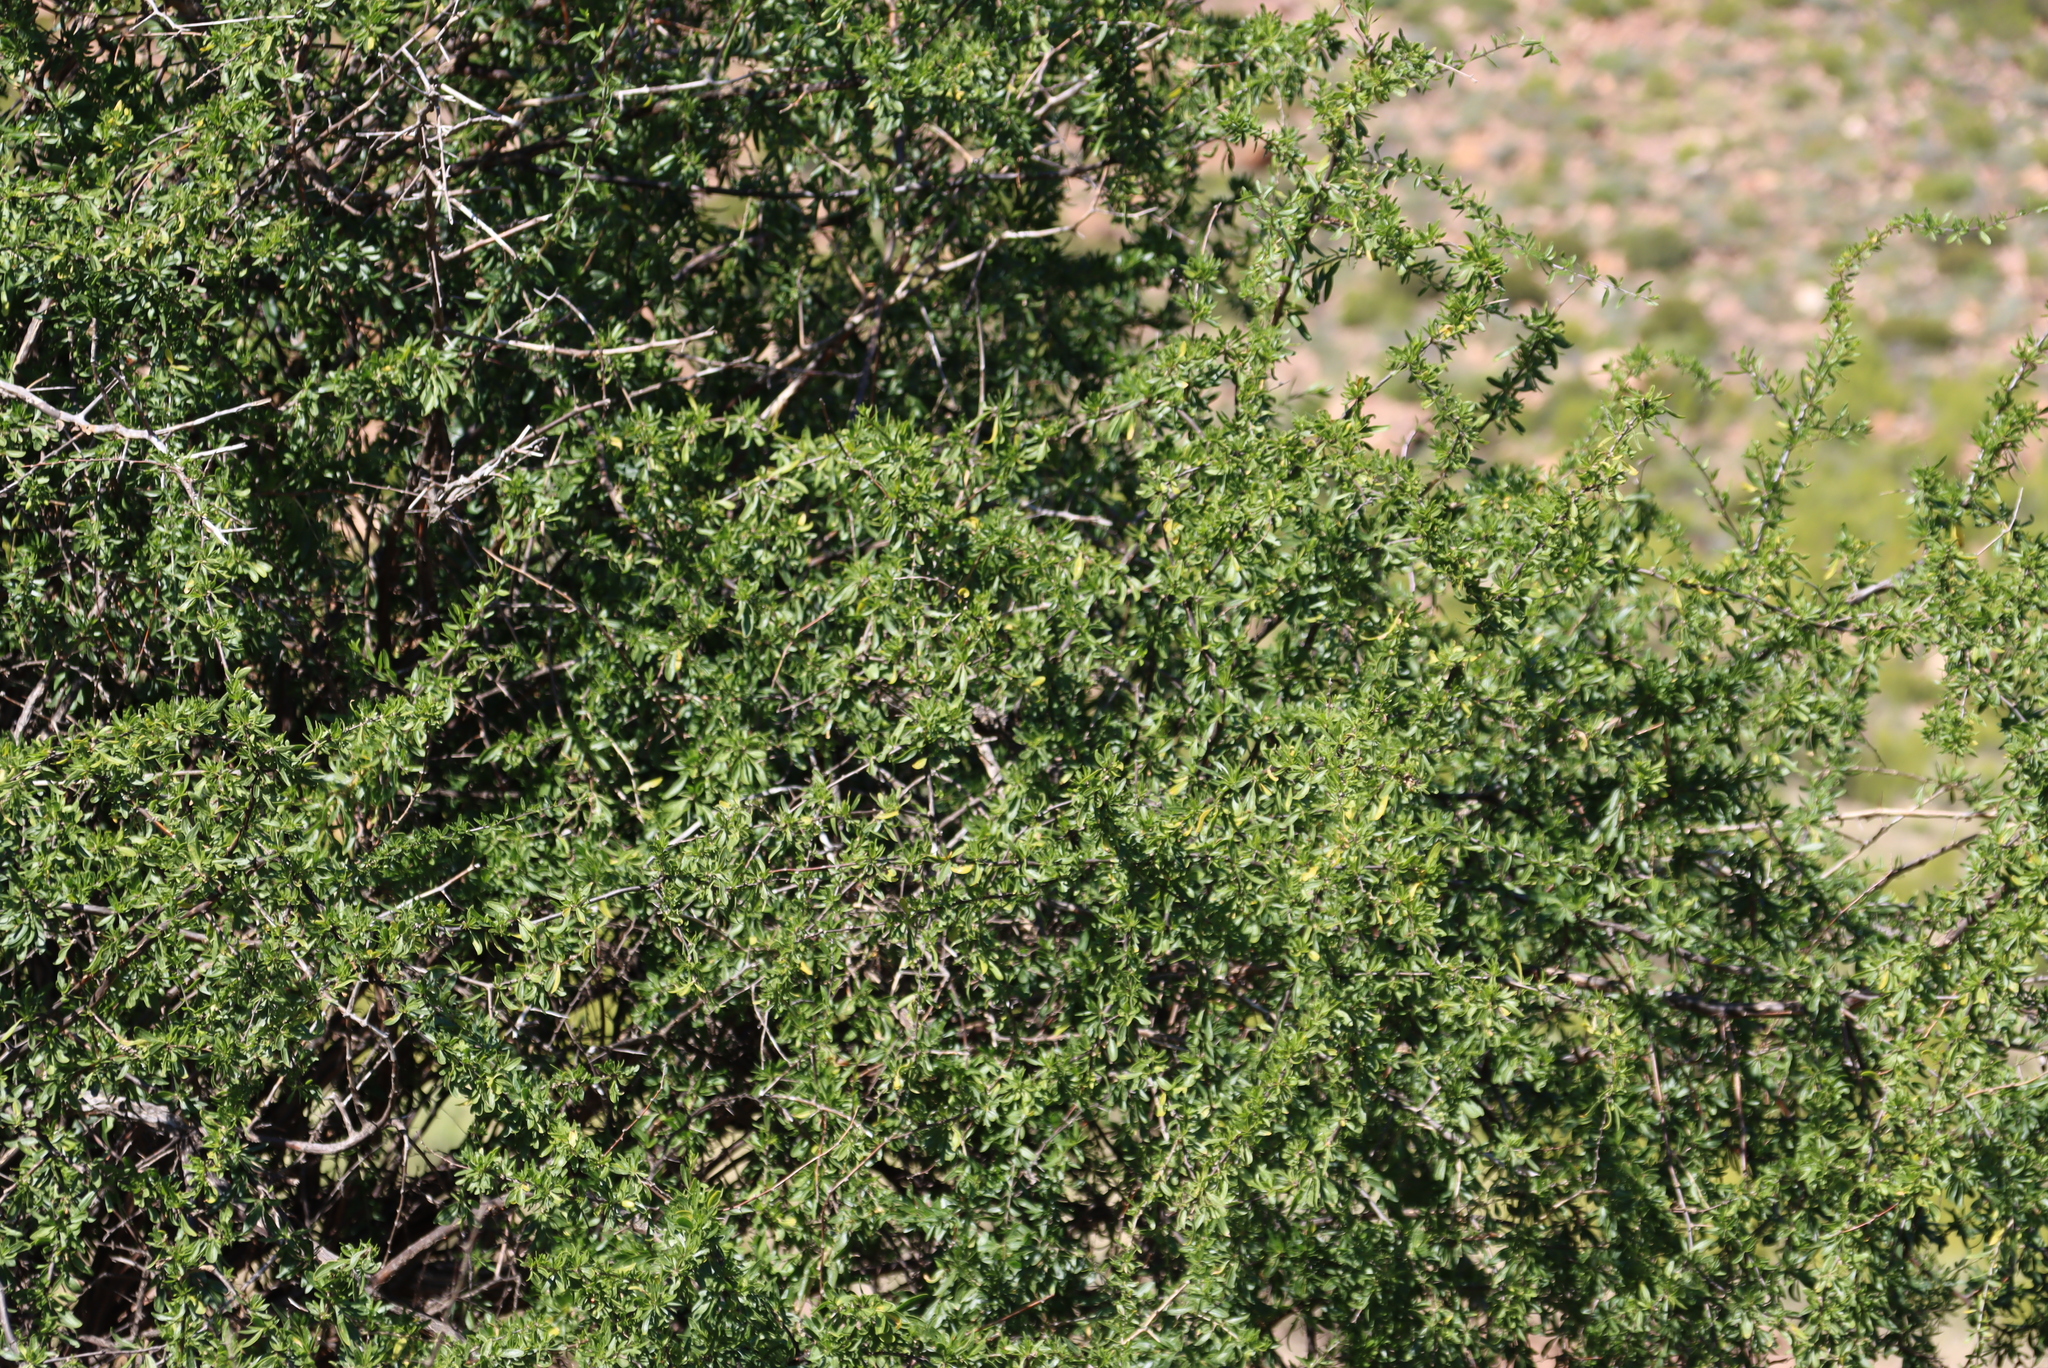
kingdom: Plantae
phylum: Tracheophyta
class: Magnoliopsida
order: Solanales
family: Solanaceae
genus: Lycium
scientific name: Lycium oxycarpum
